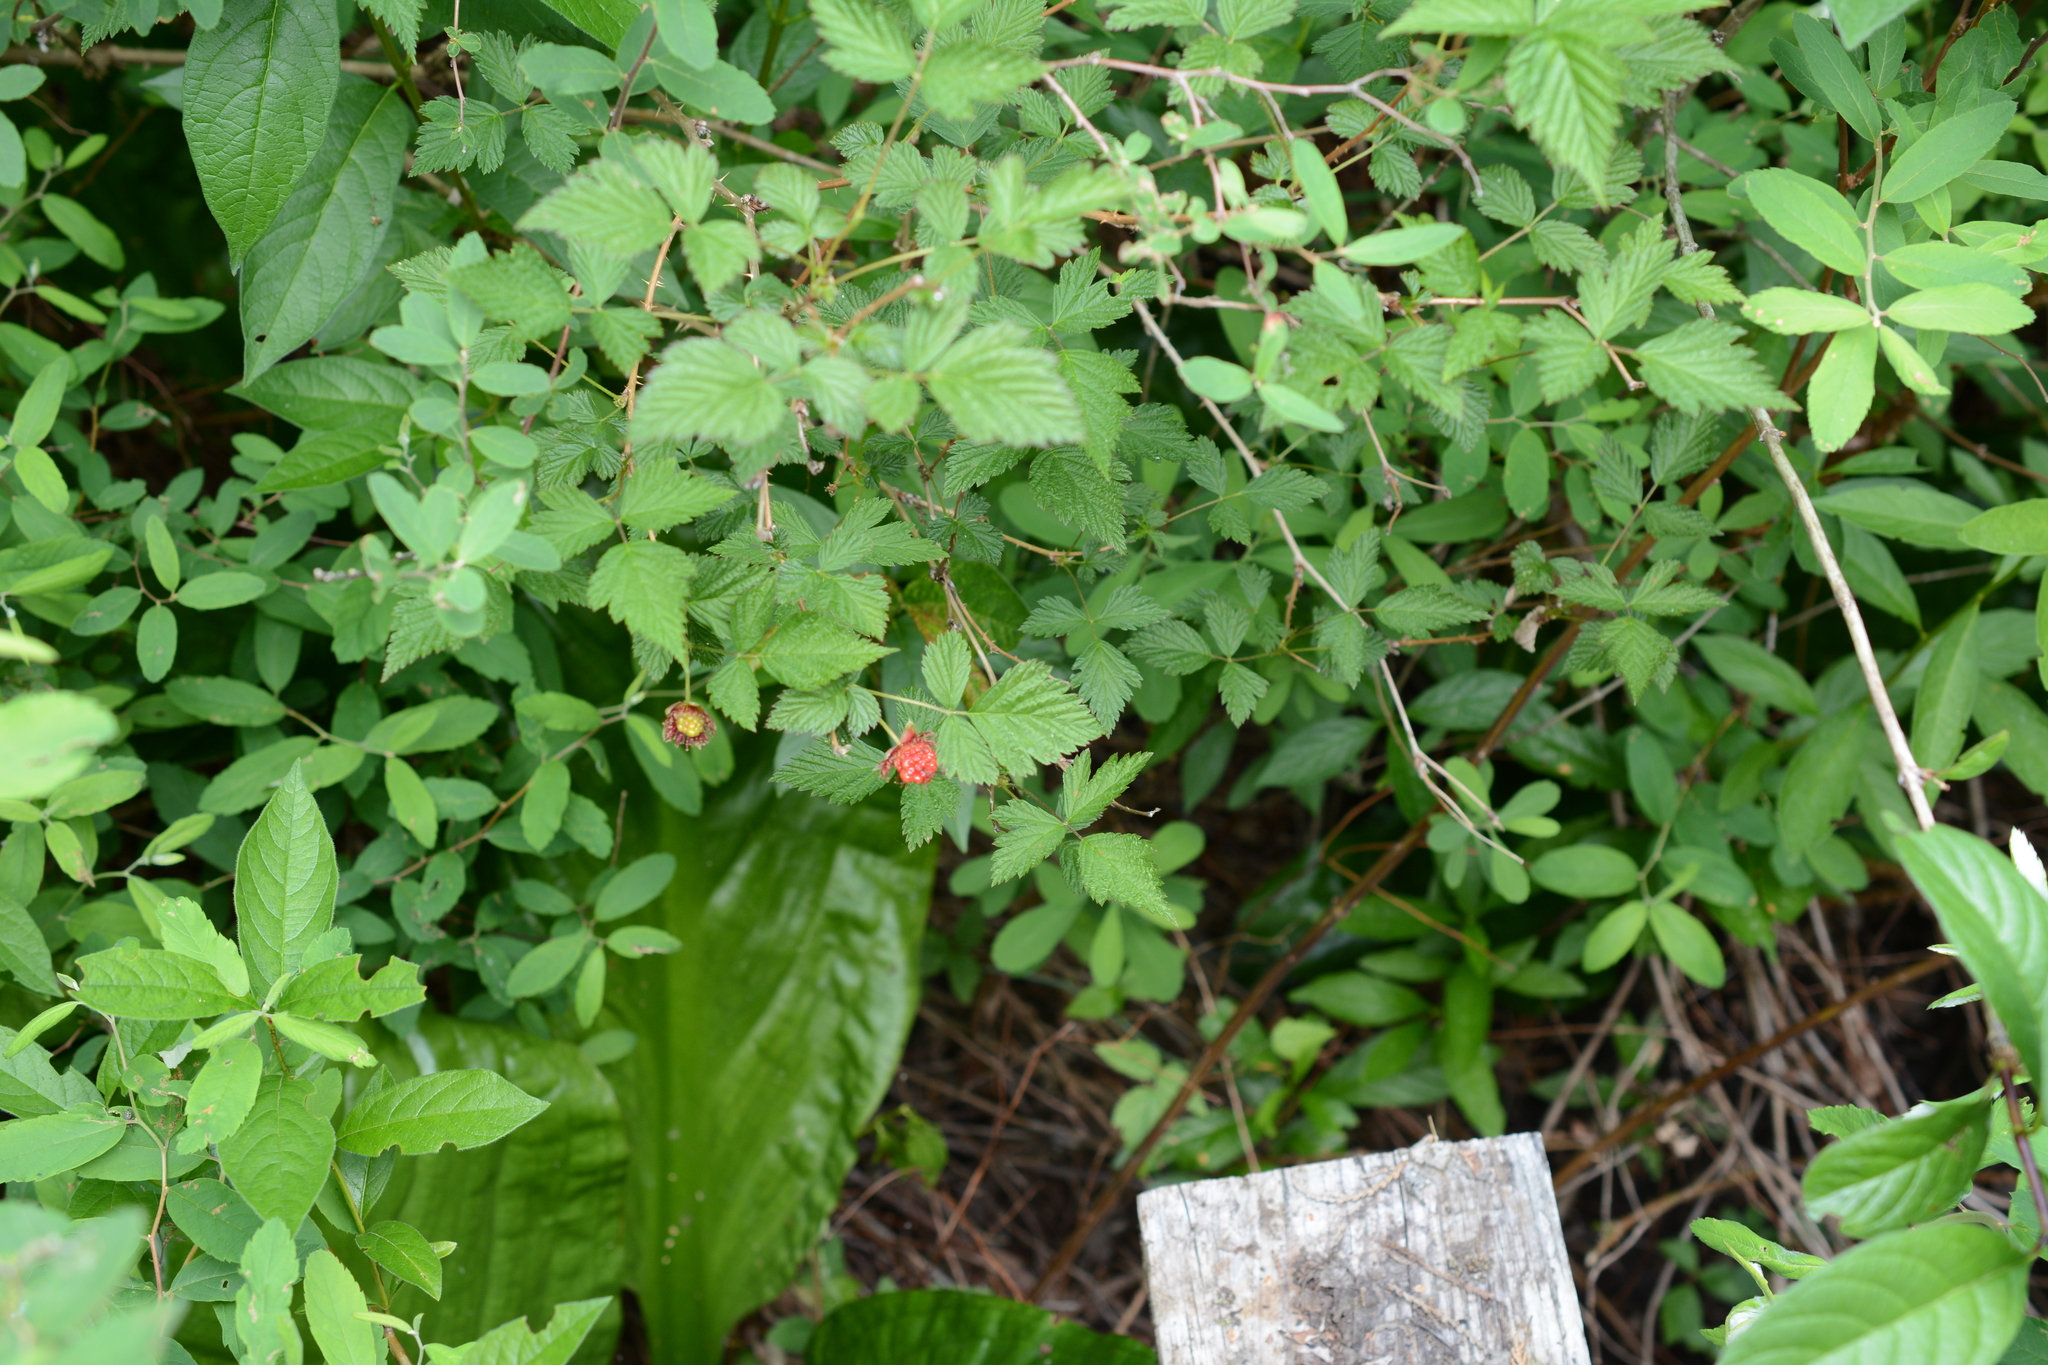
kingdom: Plantae
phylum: Tracheophyta
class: Magnoliopsida
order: Rosales
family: Rosaceae
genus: Rubus
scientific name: Rubus spectabilis
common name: Salmonberry
